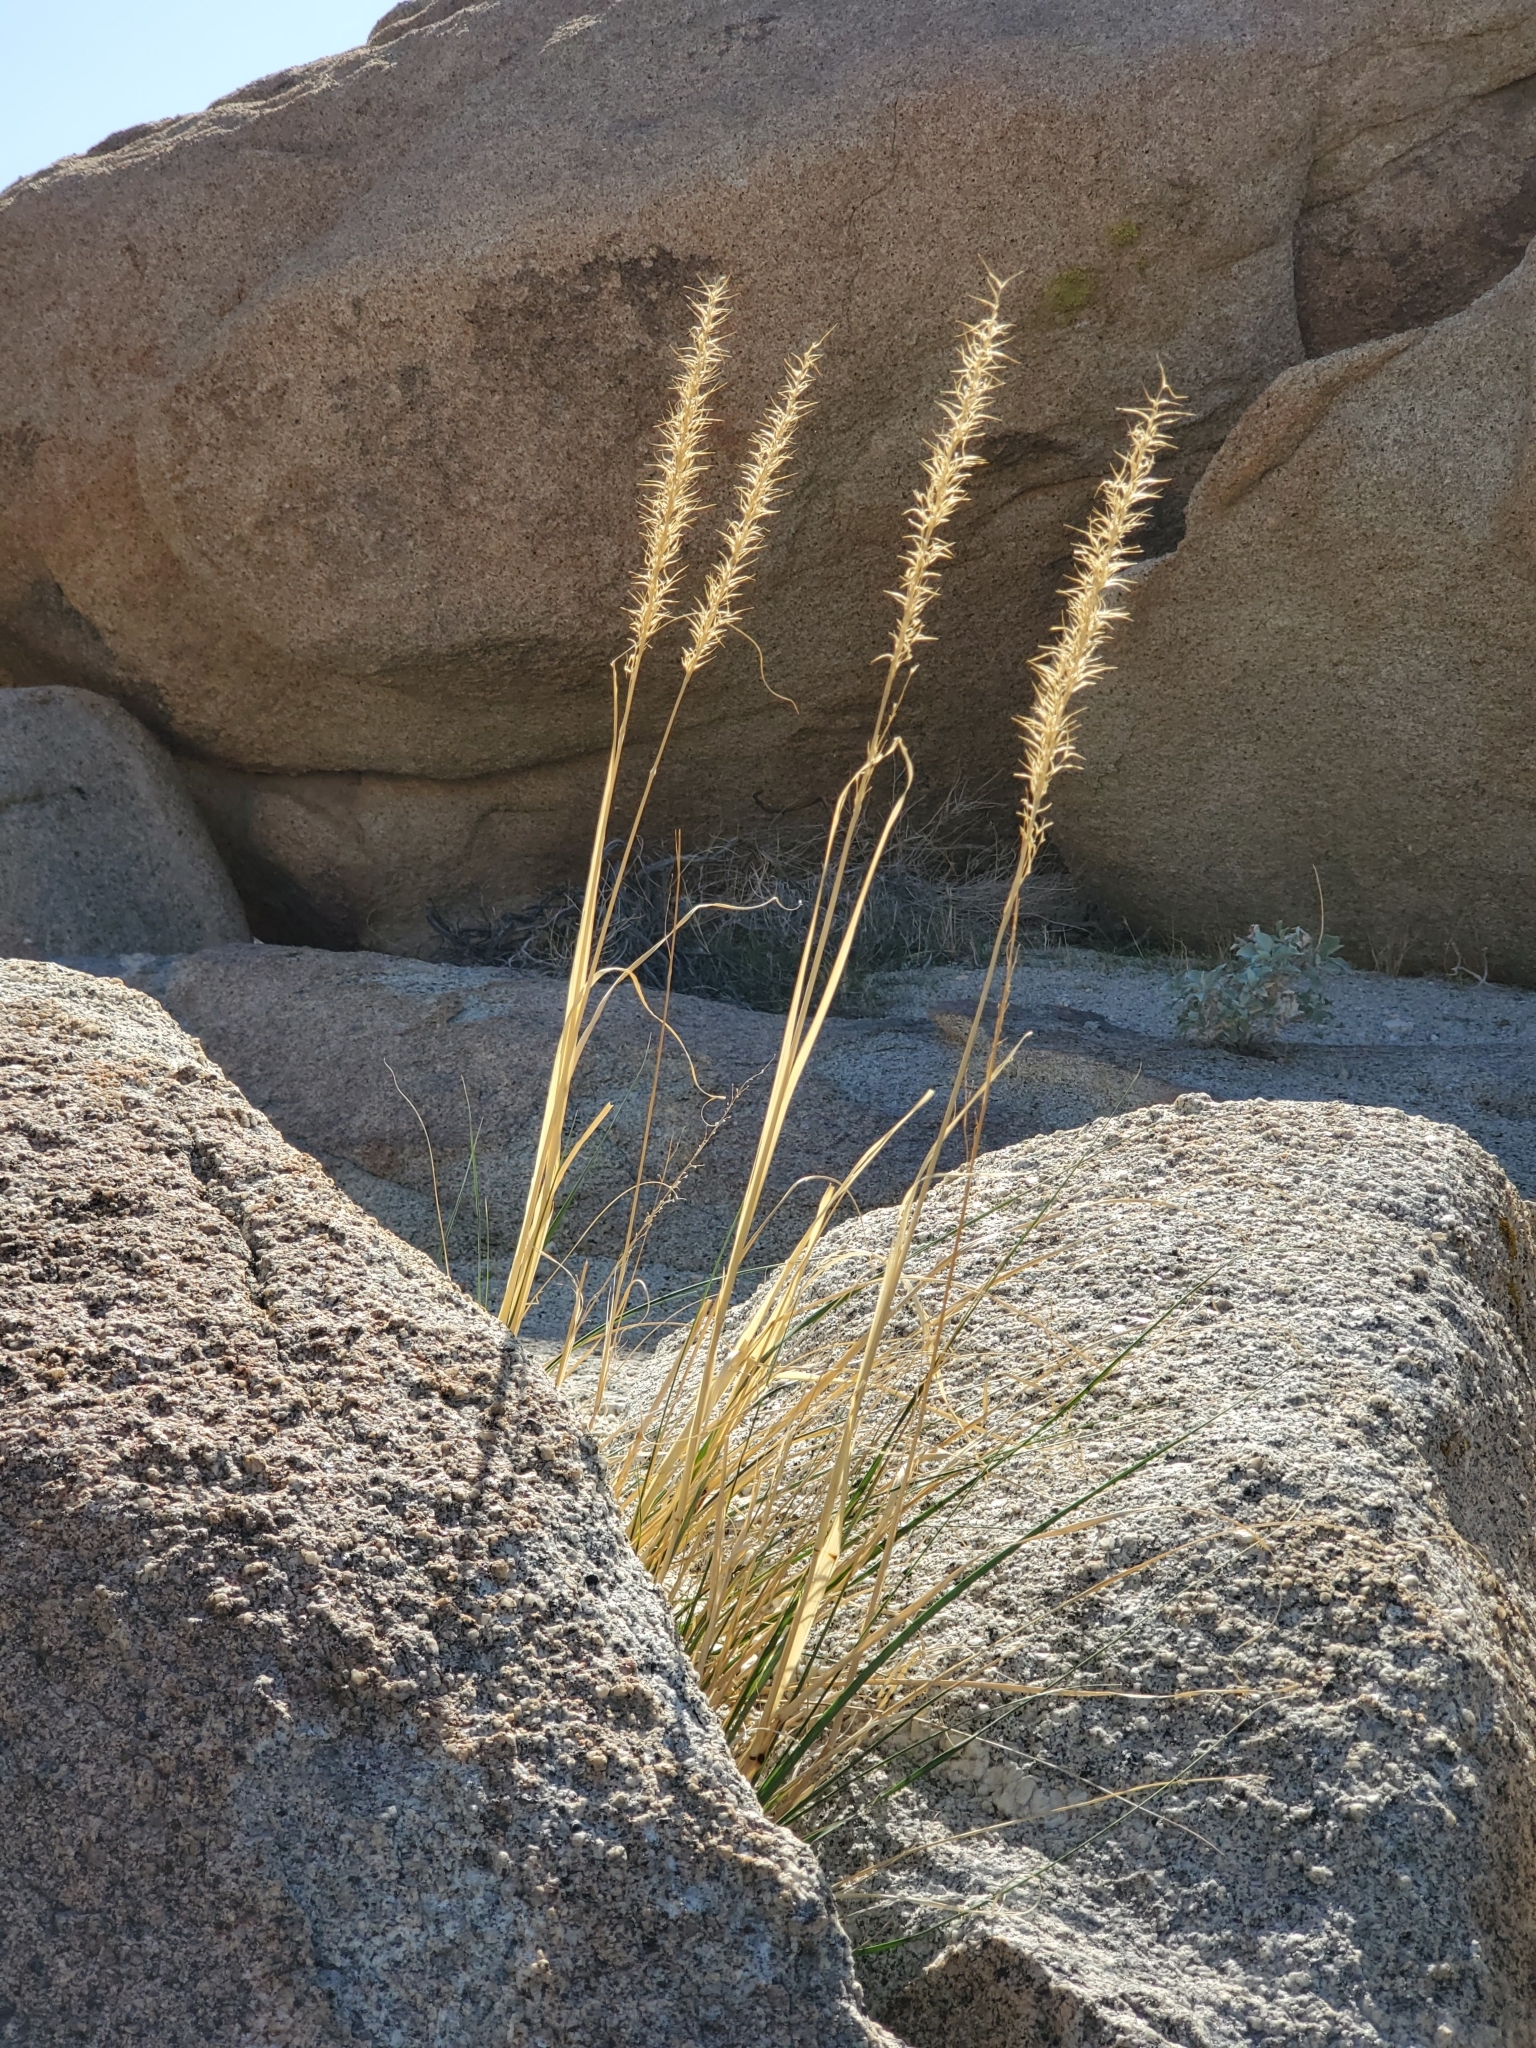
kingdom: Plantae
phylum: Tracheophyta
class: Liliopsida
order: Poales
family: Poaceae
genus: Pappostipa
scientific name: Pappostipa speciosa
